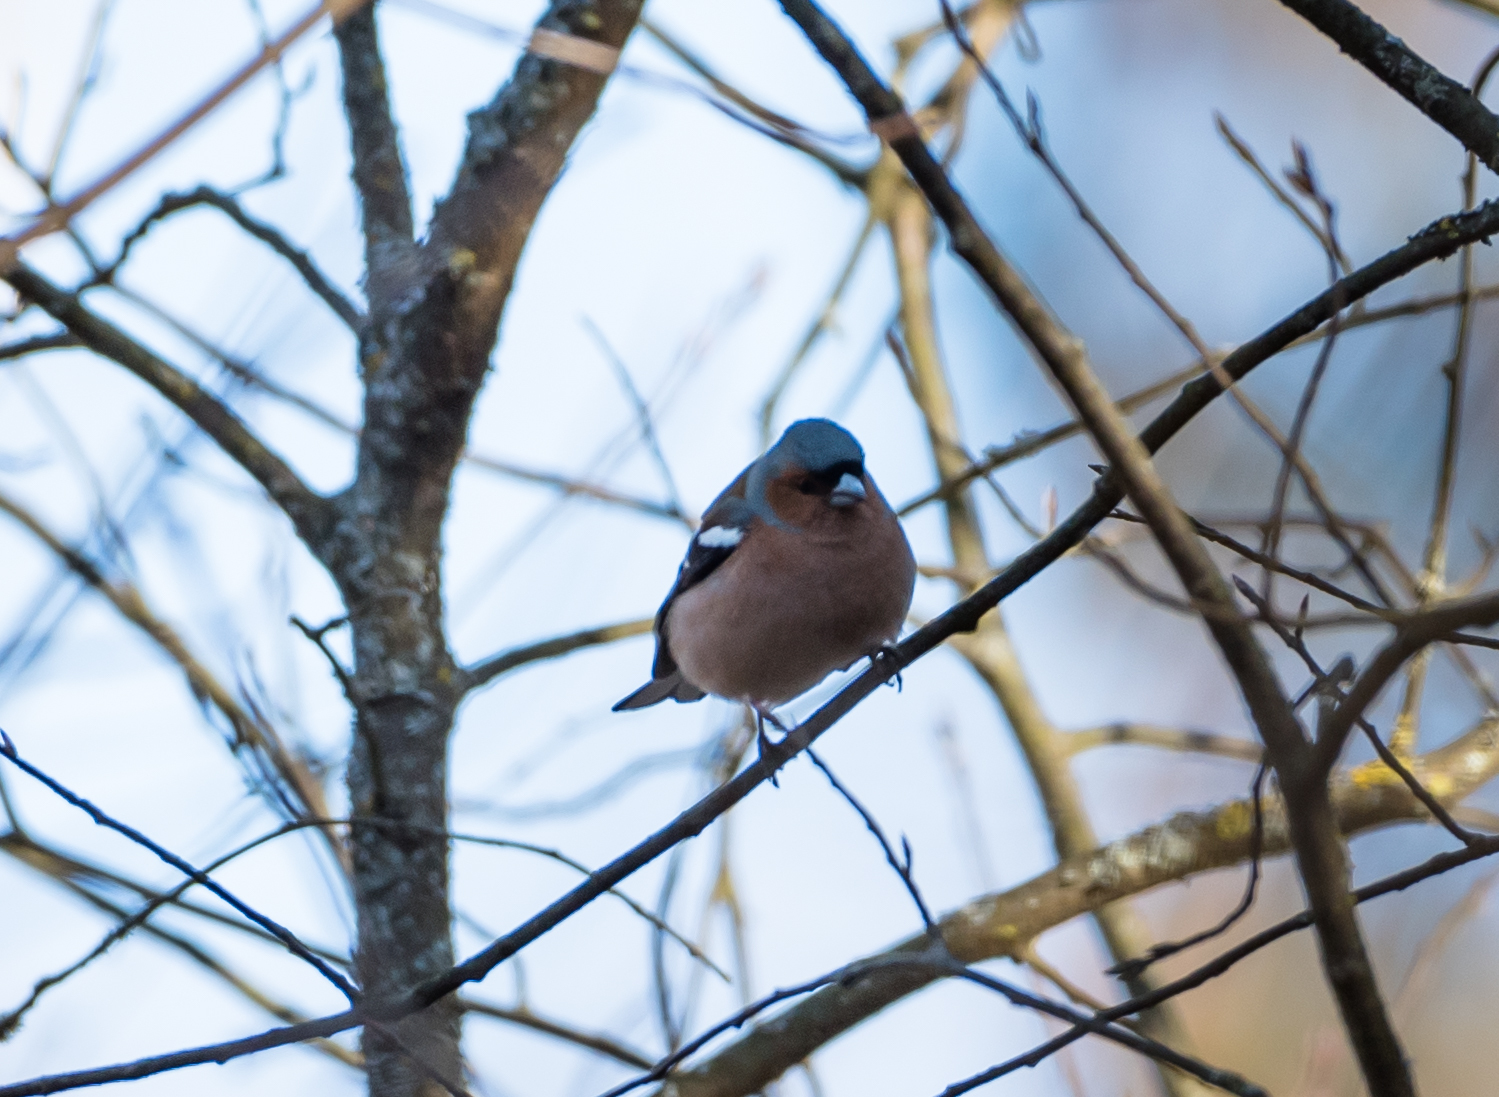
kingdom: Animalia
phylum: Chordata
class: Aves
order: Passeriformes
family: Fringillidae
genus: Fringilla
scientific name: Fringilla coelebs
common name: Common chaffinch
